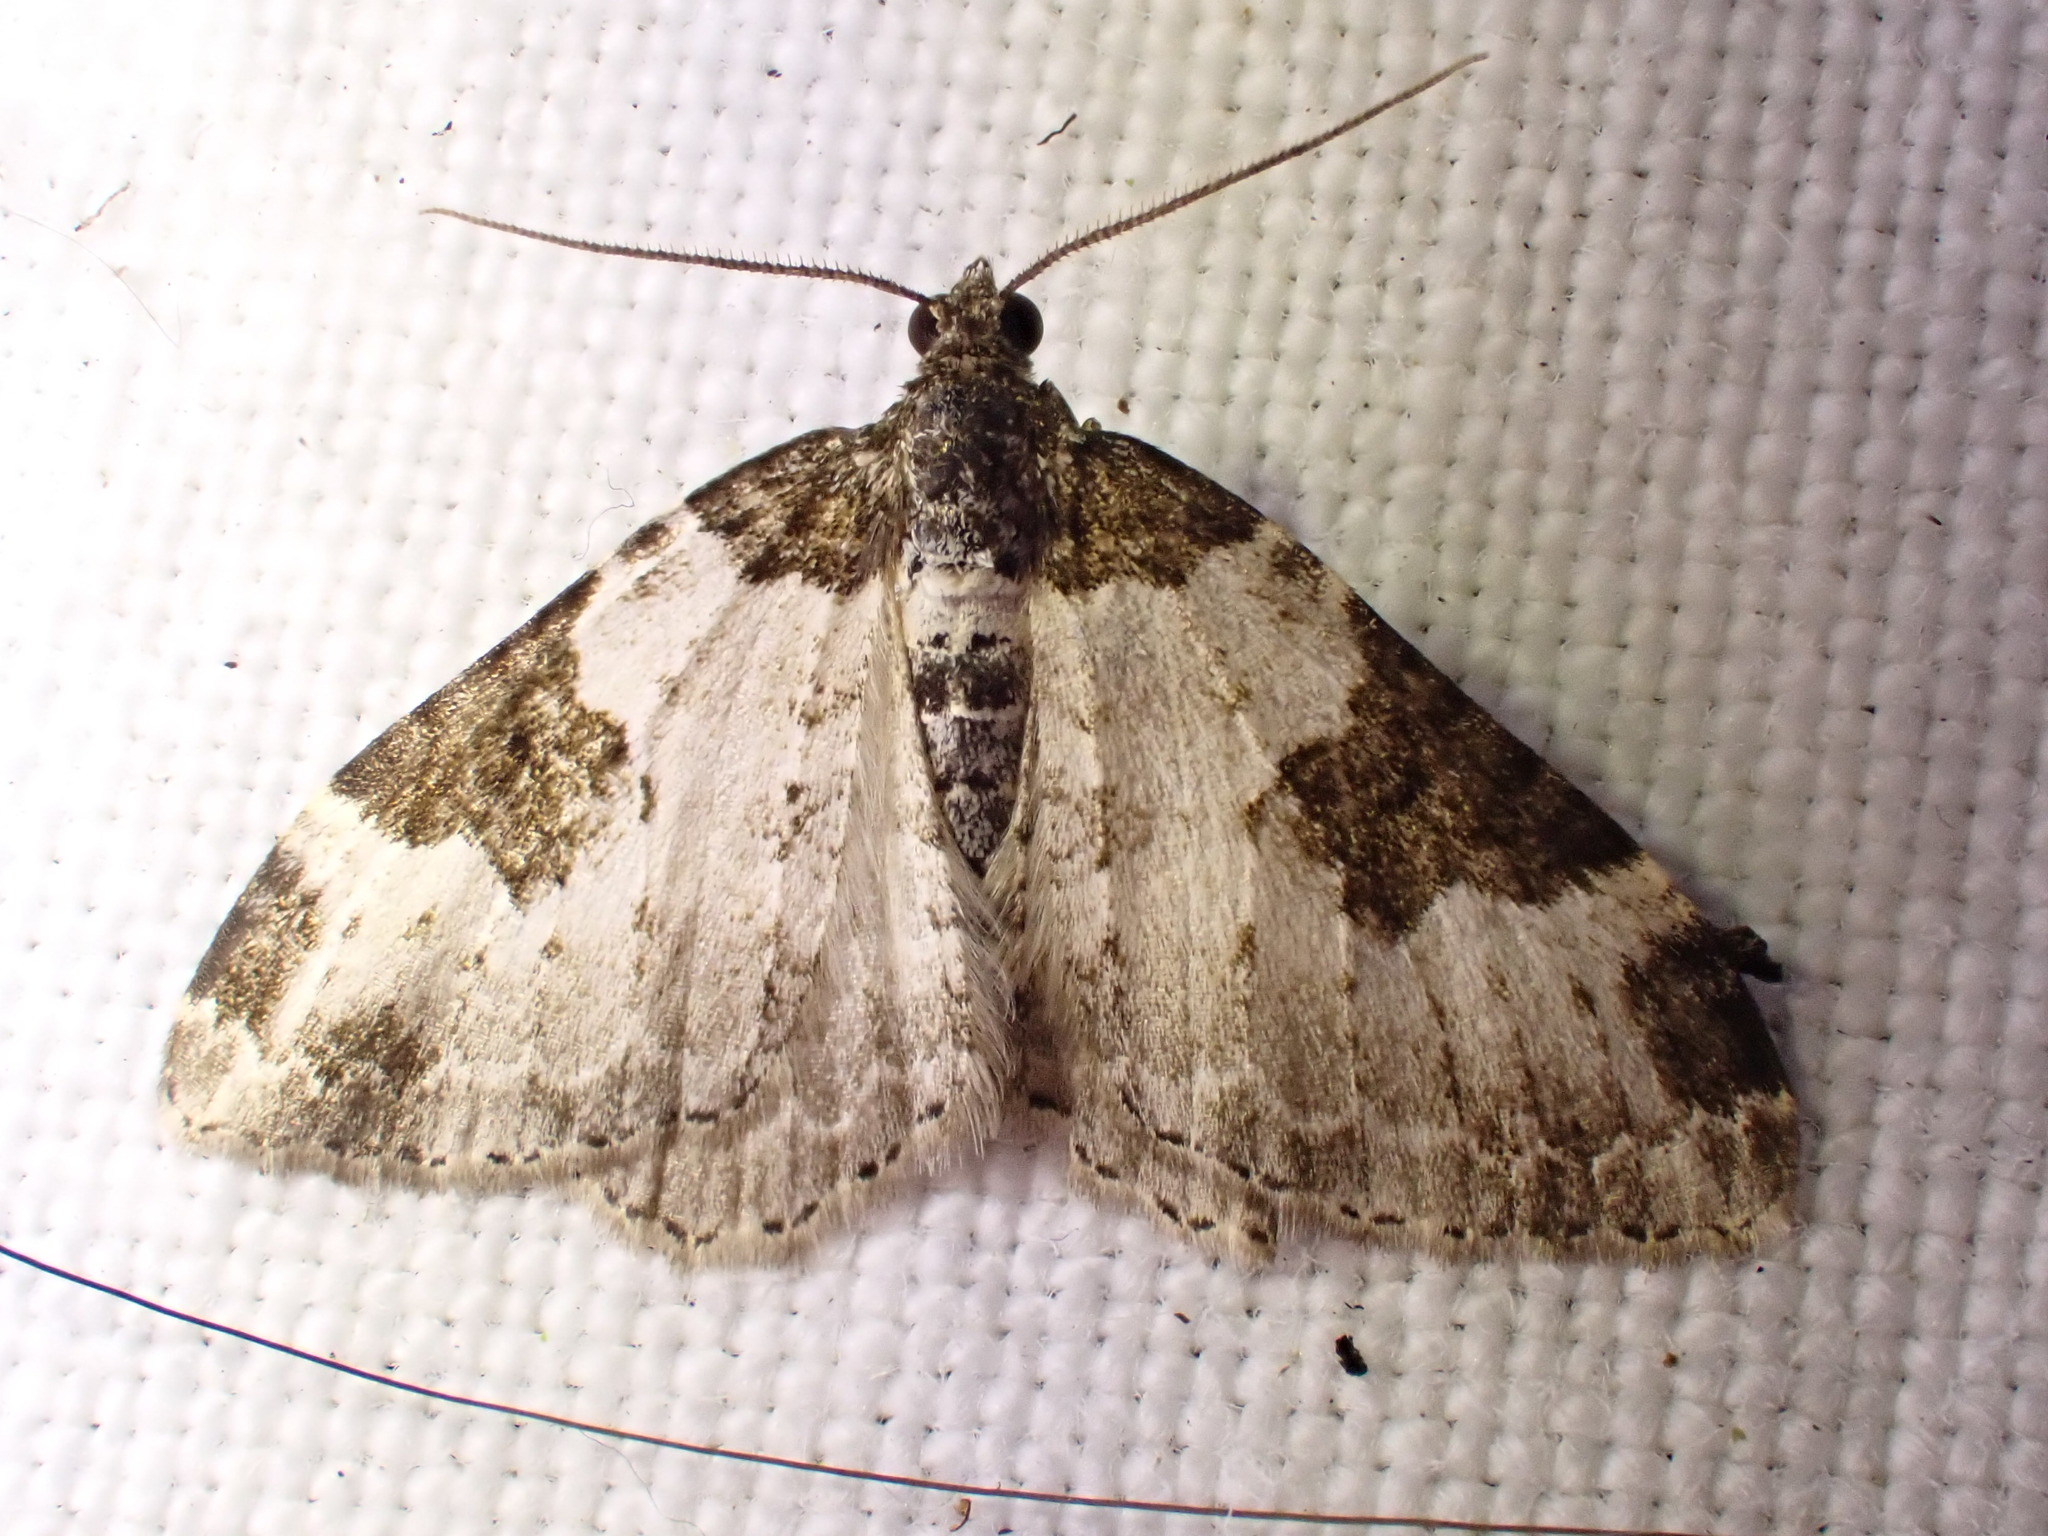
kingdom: Animalia
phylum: Arthropoda
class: Insecta
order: Lepidoptera
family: Geometridae
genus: Xanthorhoe
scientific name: Xanthorhoe fluctuata
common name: Garden carpet
